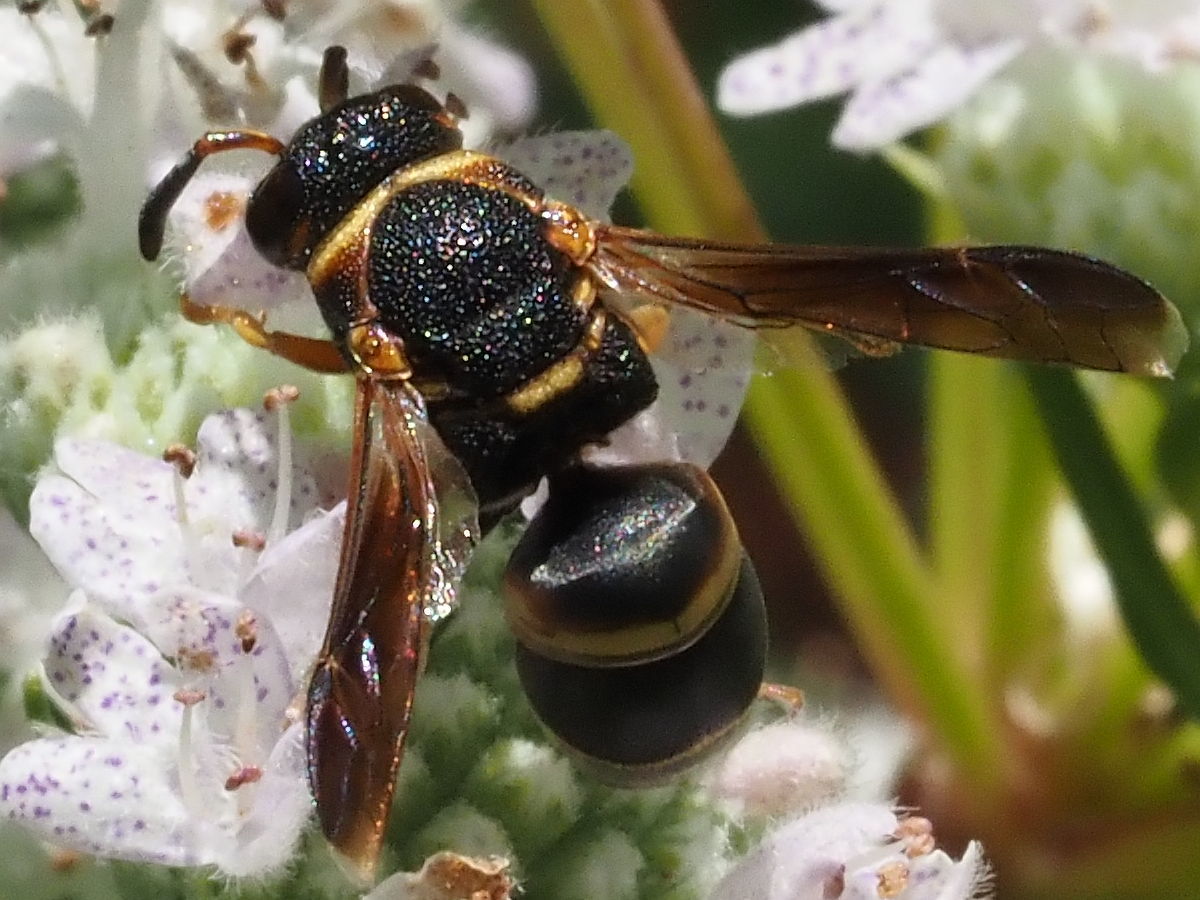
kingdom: Animalia
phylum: Arthropoda
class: Insecta
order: Hymenoptera
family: Eumenidae
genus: Euodynerus
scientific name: Euodynerus hidalgo
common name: Wasp
